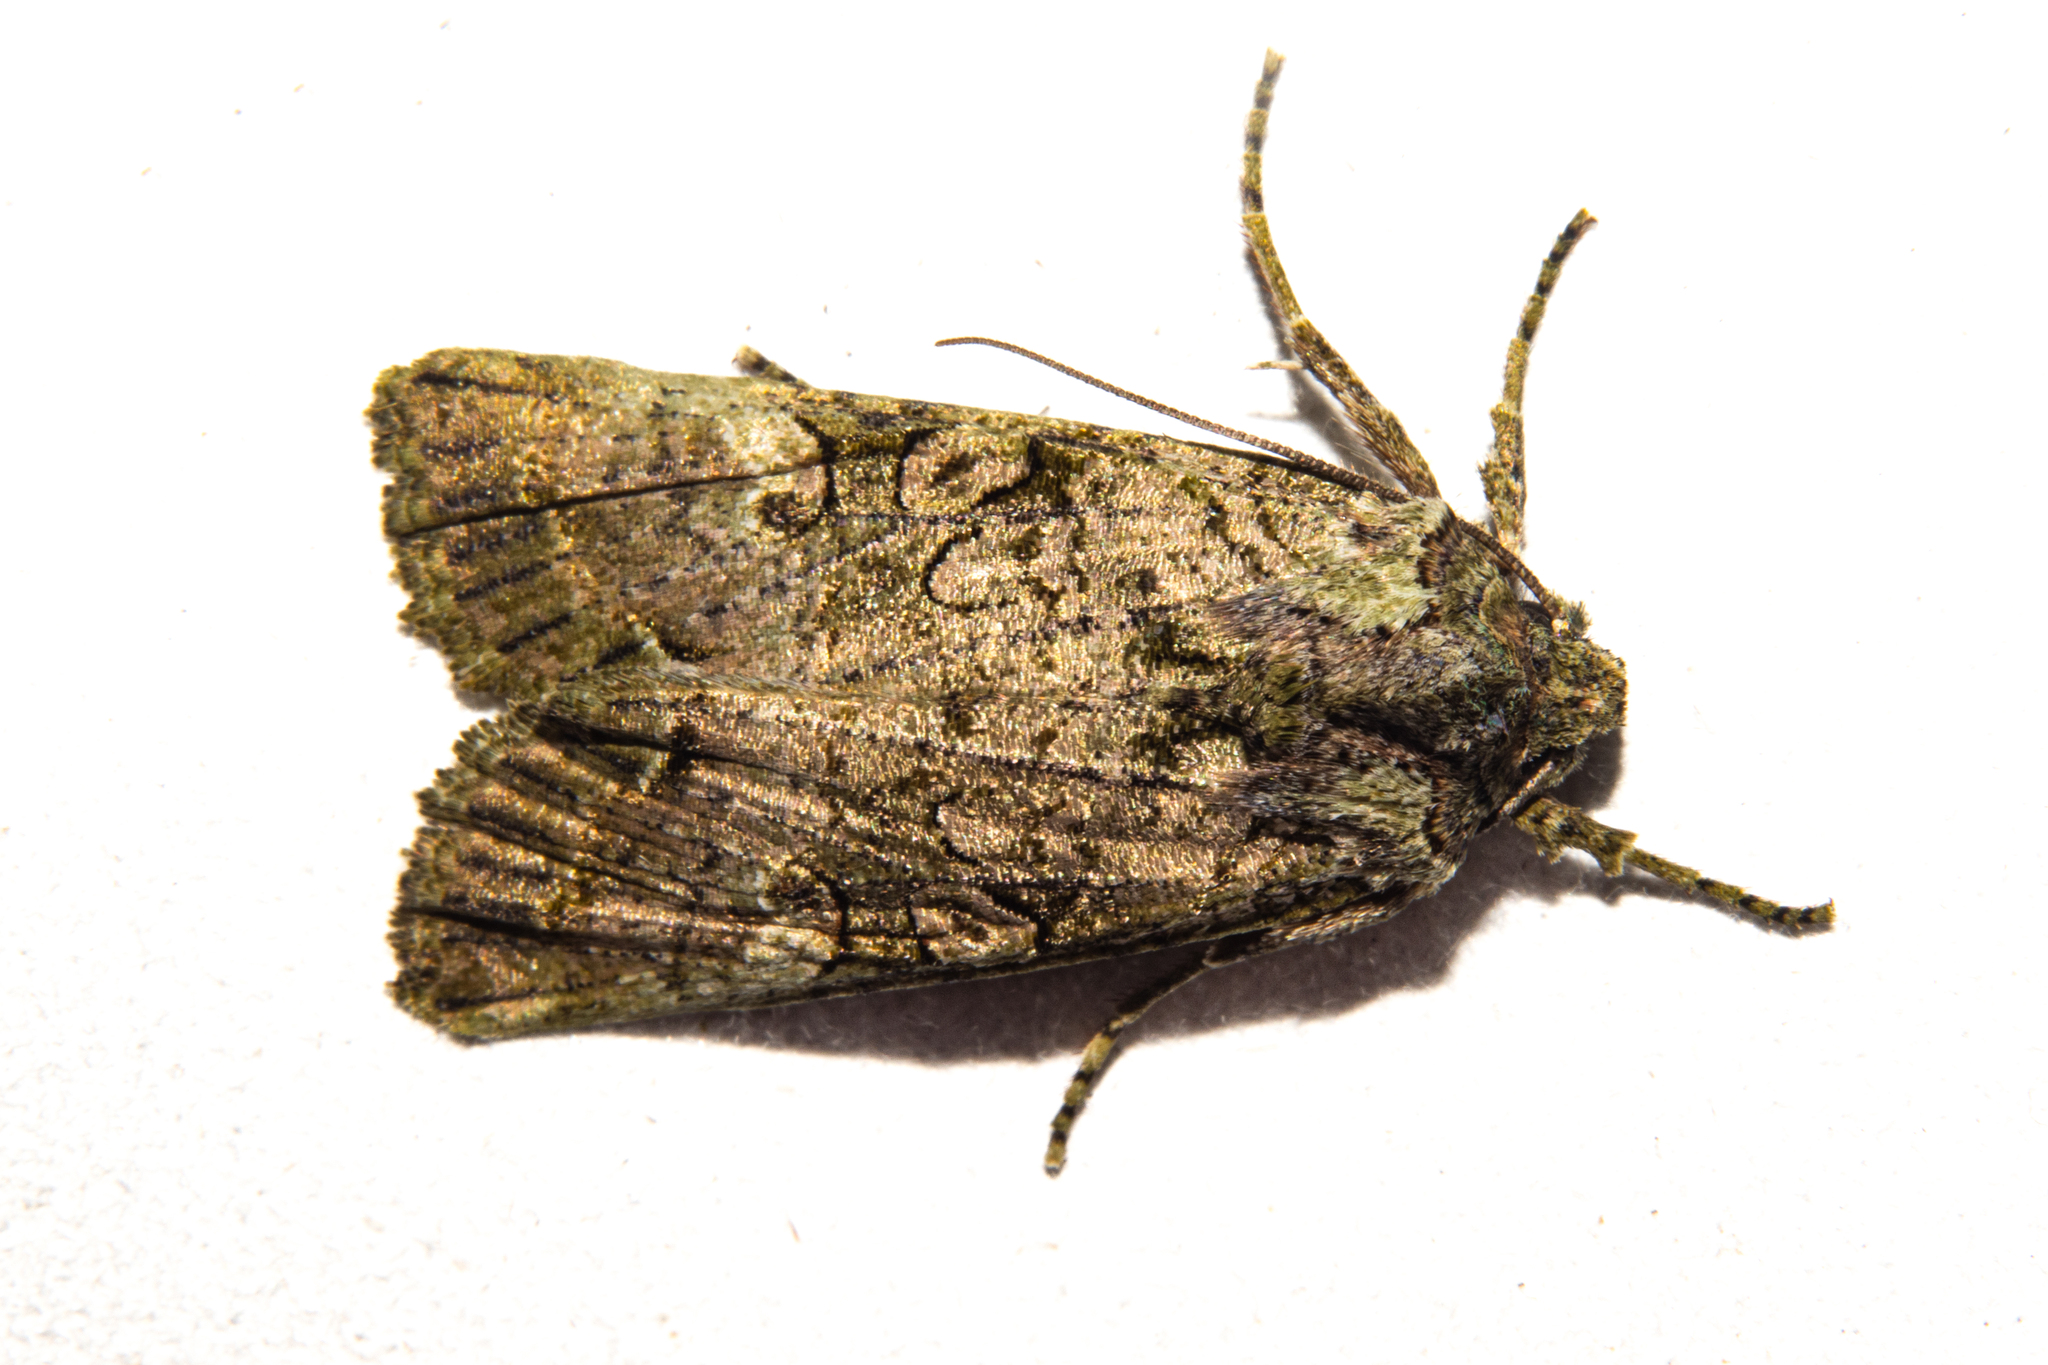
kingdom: Animalia
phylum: Arthropoda
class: Insecta
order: Lepidoptera
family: Noctuidae
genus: Meterana
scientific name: Meterana levis
